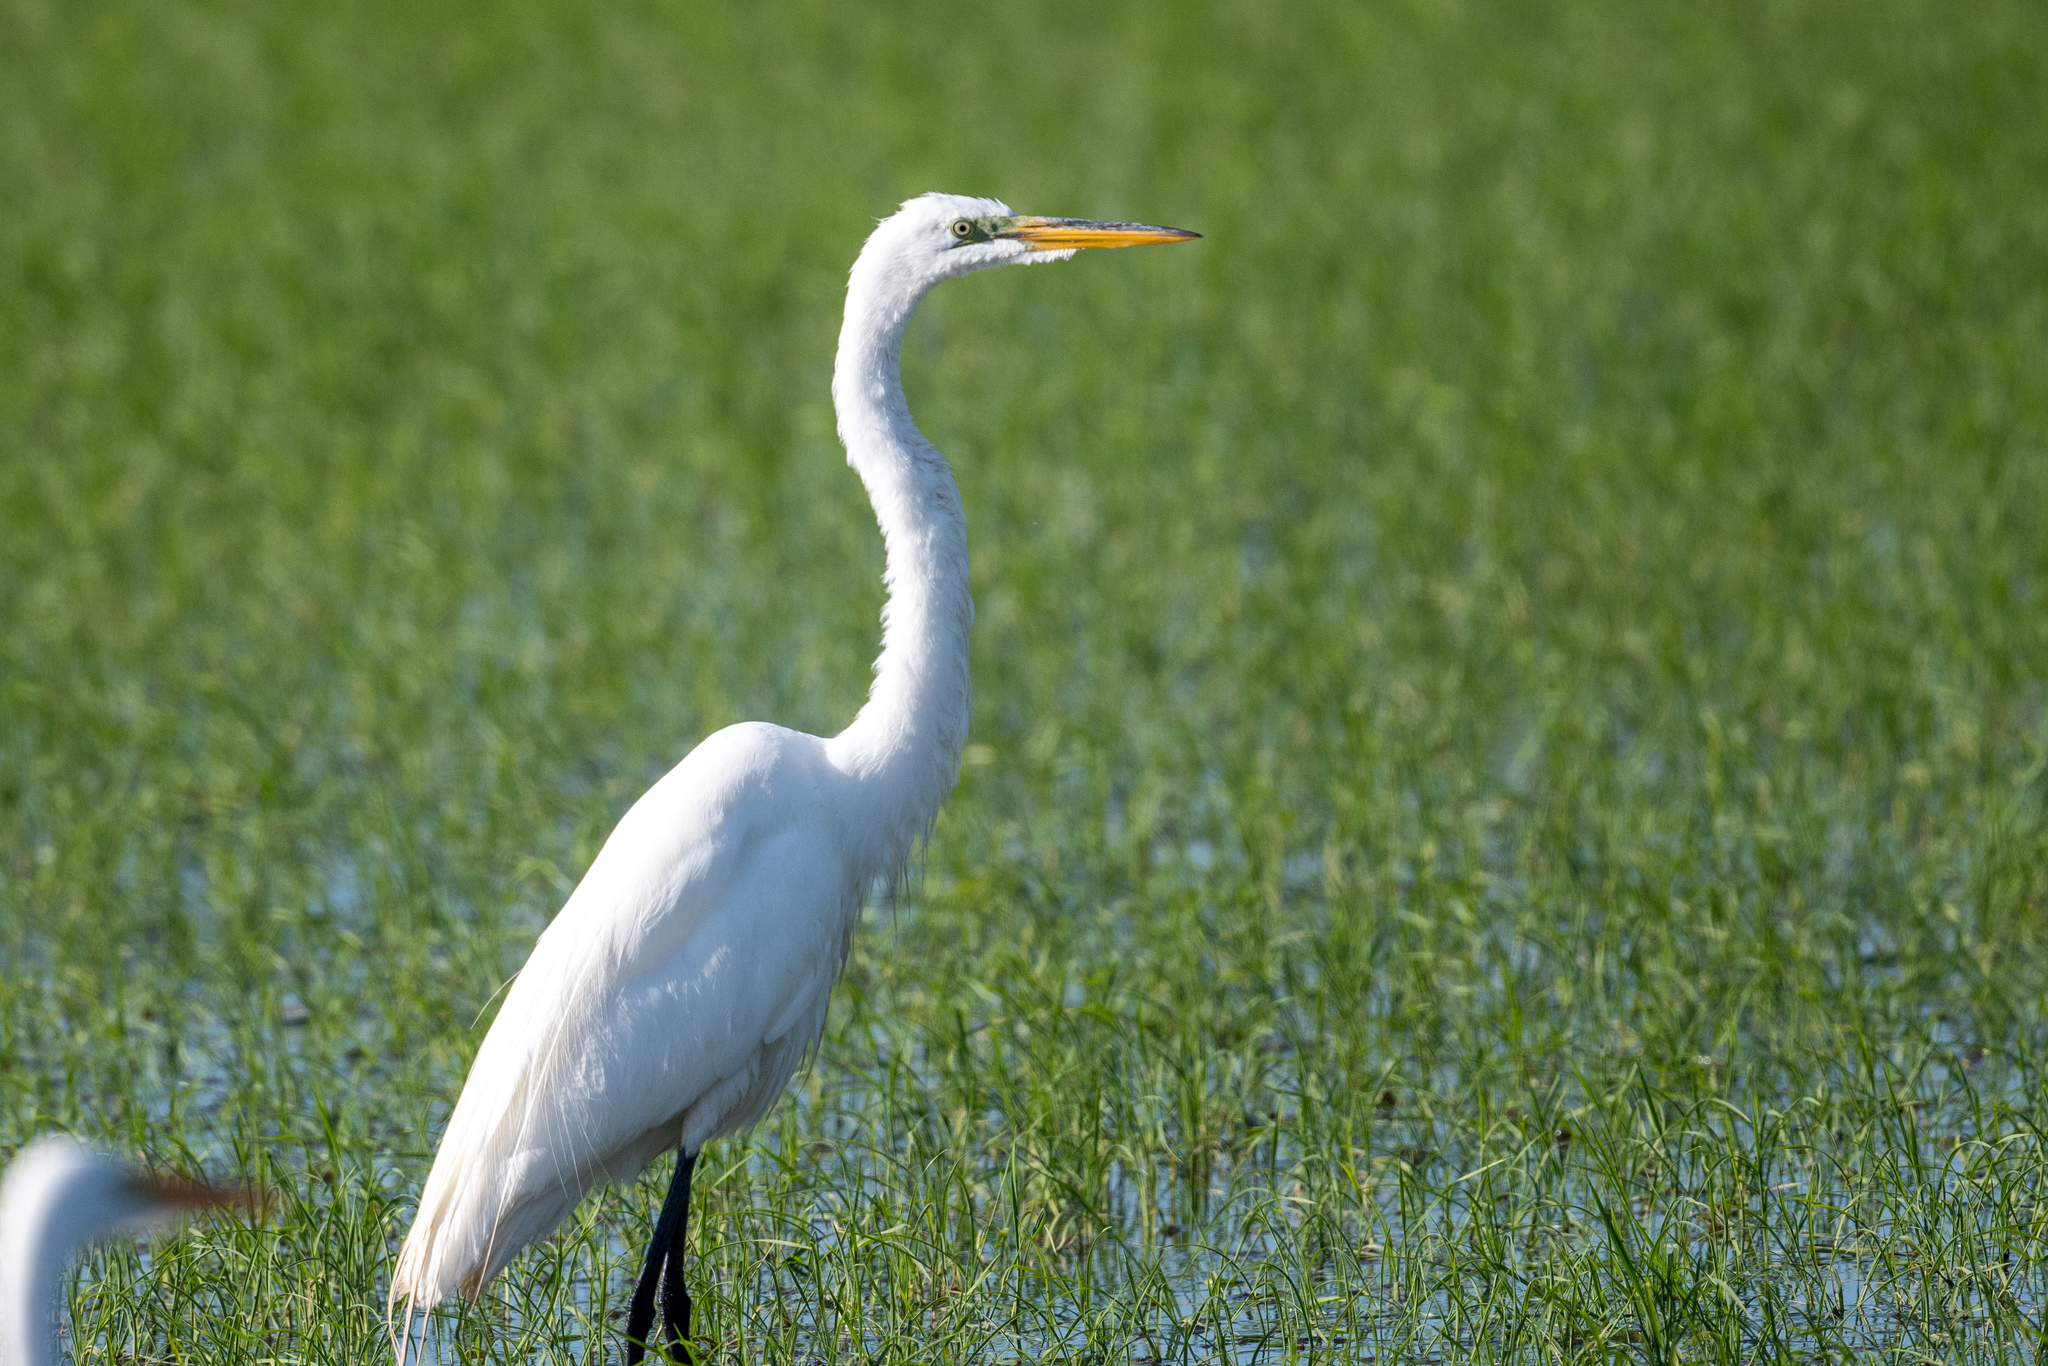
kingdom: Animalia
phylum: Chordata
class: Aves
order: Pelecaniformes
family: Ardeidae
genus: Ardea
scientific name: Ardea alba
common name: Great egret
